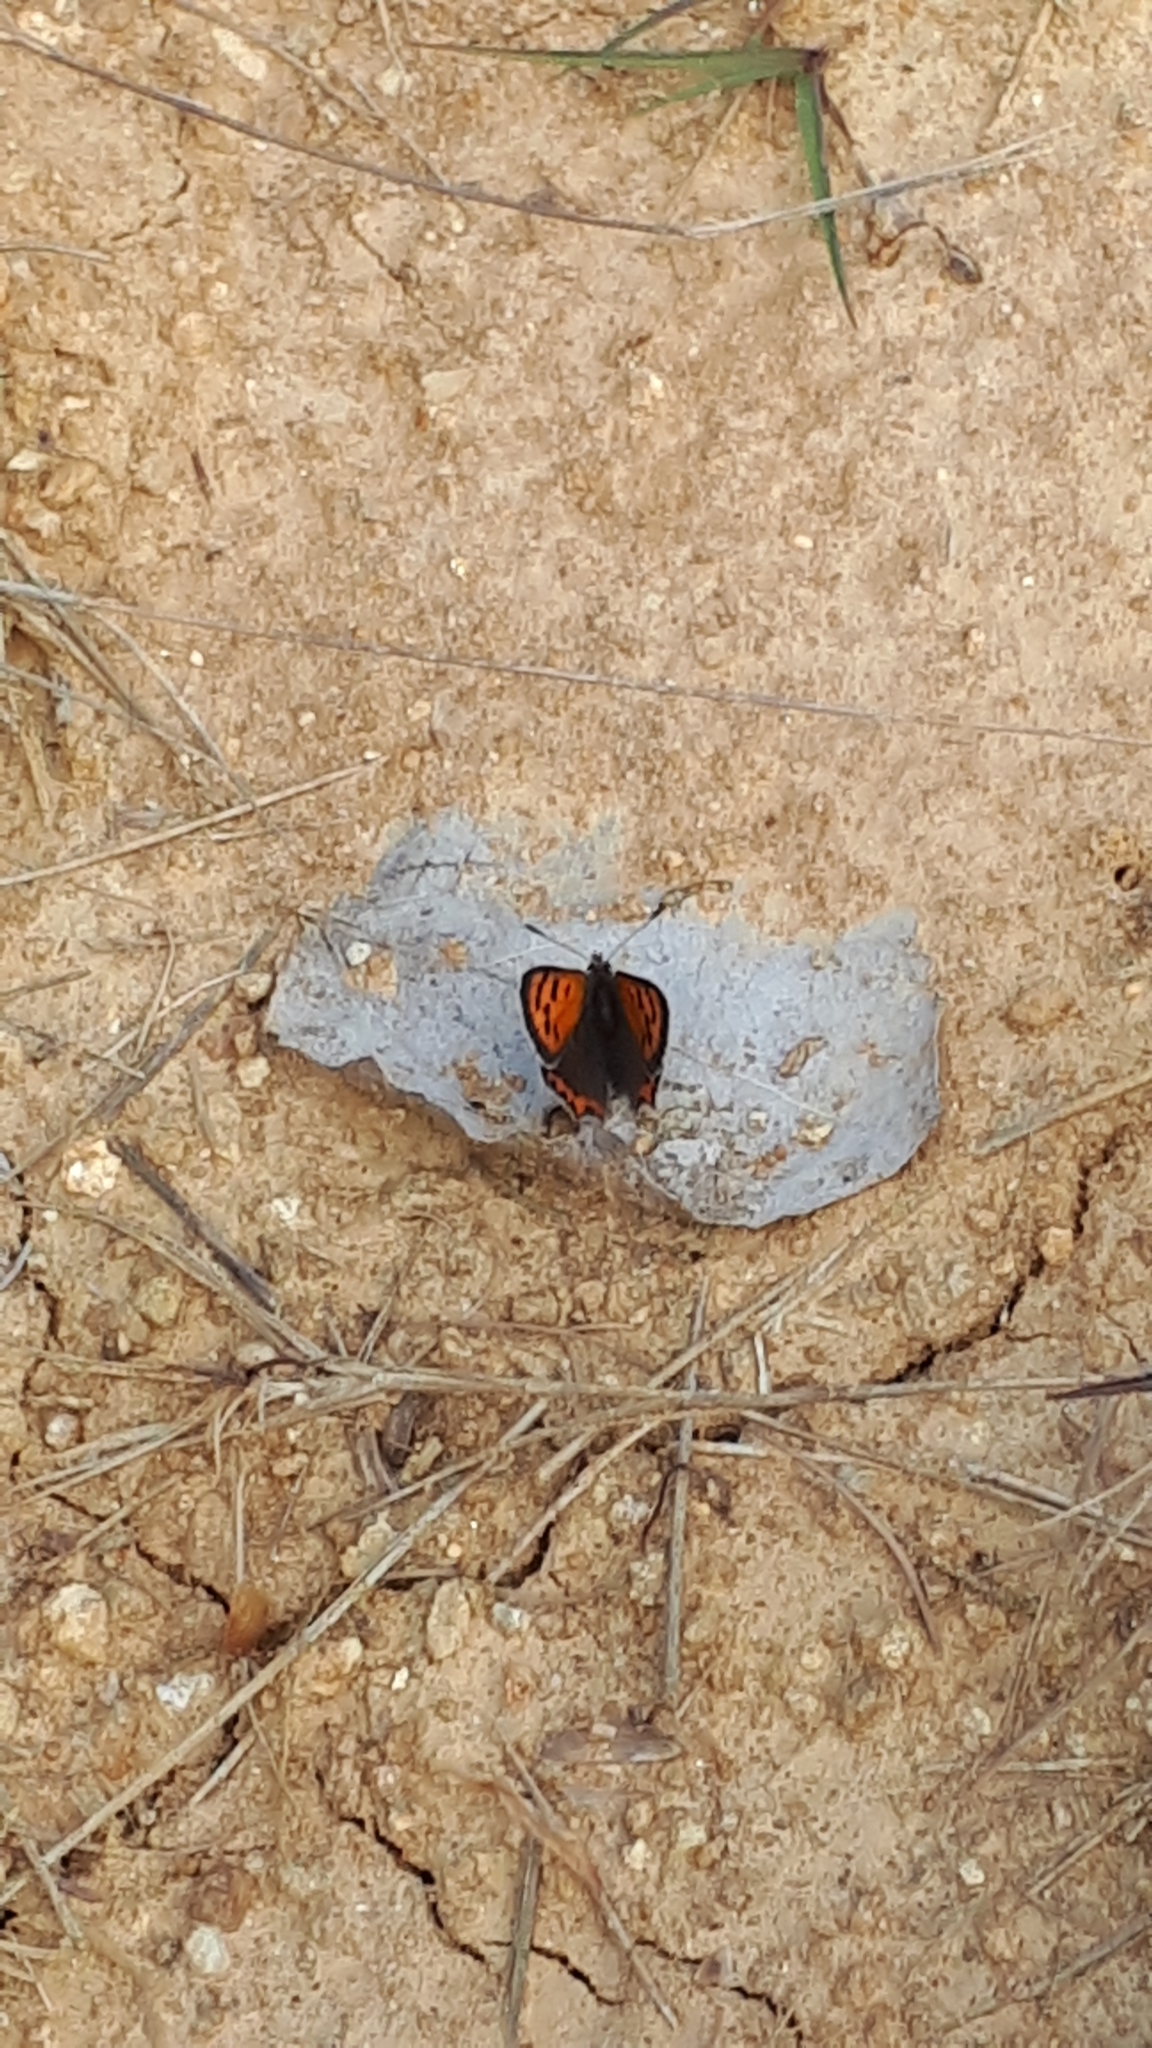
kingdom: Animalia
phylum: Arthropoda
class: Insecta
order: Lepidoptera
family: Lycaenidae
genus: Lycaena
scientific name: Lycaena phlaeas
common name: Small copper
